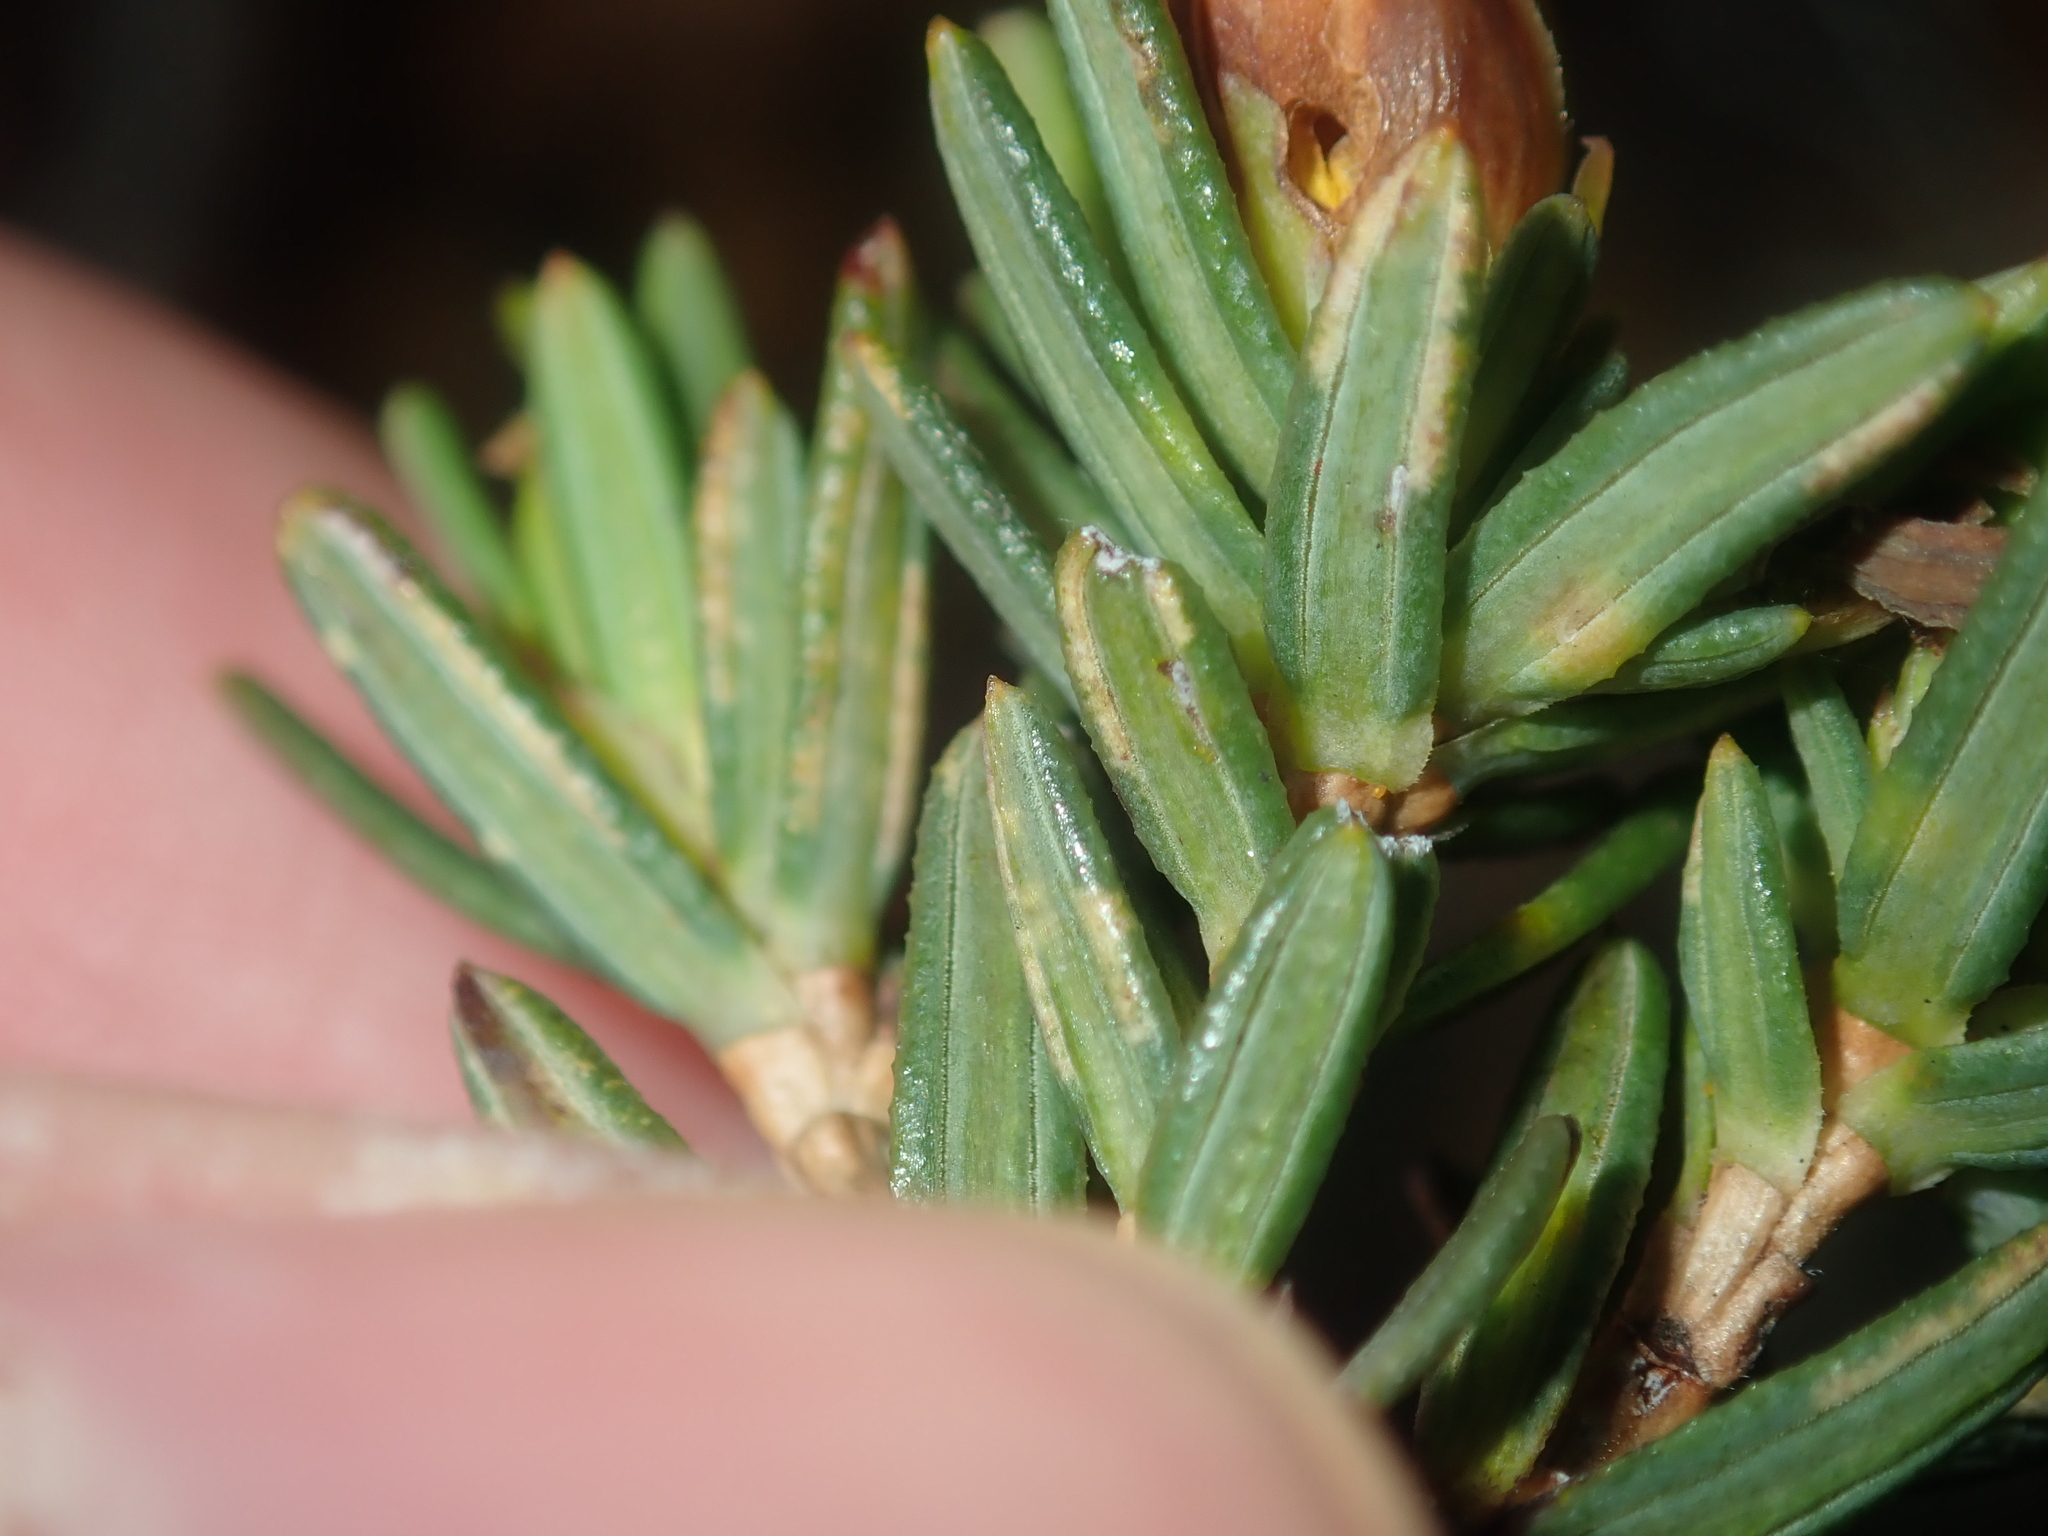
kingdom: Plantae
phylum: Tracheophyta
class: Magnoliopsida
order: Dilleniales
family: Dilleniaceae
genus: Hibbertia
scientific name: Hibbertia crassifolia
